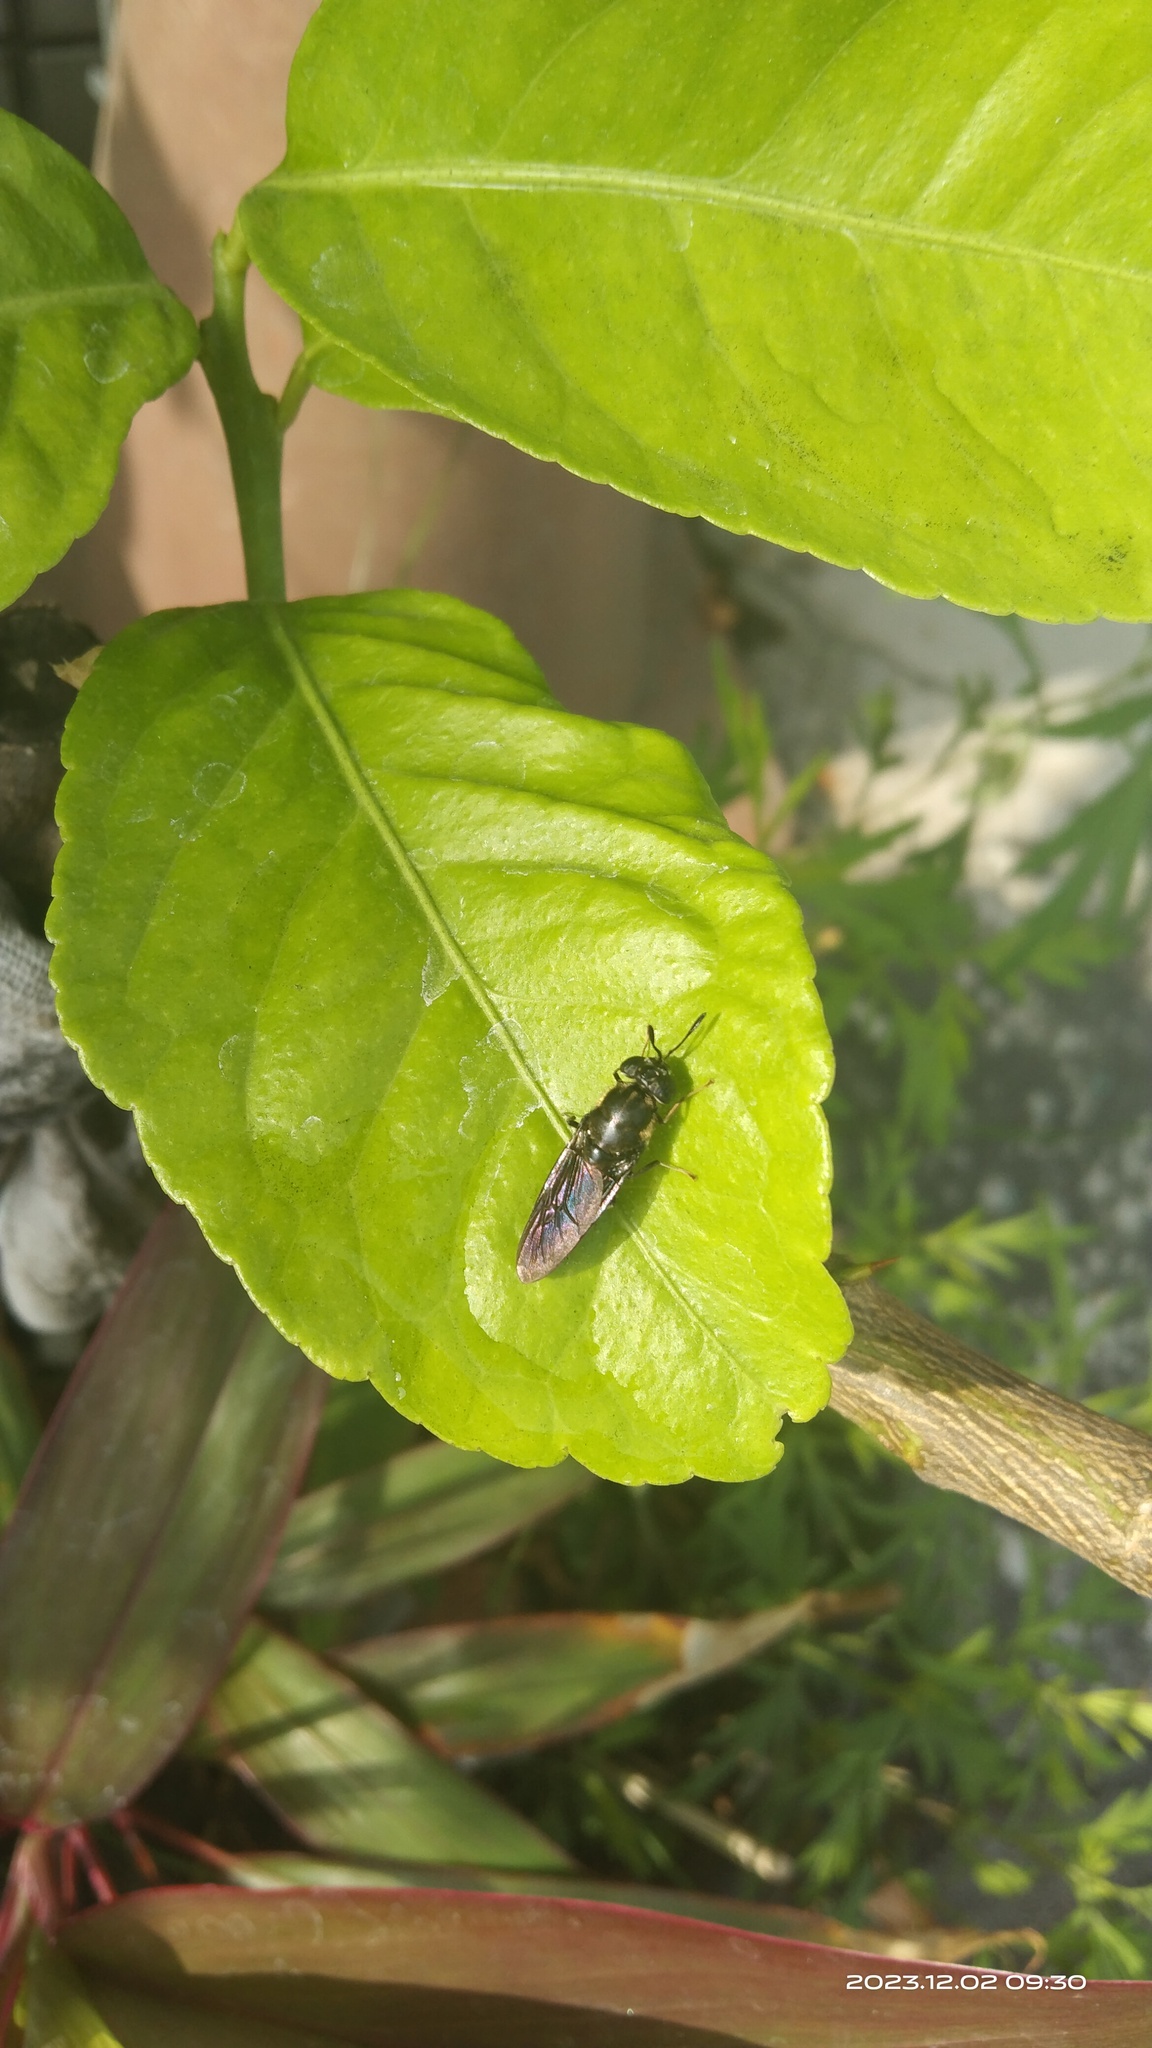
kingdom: Animalia
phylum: Arthropoda
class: Insecta
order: Diptera
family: Stratiomyidae
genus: Hermetia
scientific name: Hermetia illucens
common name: Black soldier fly
